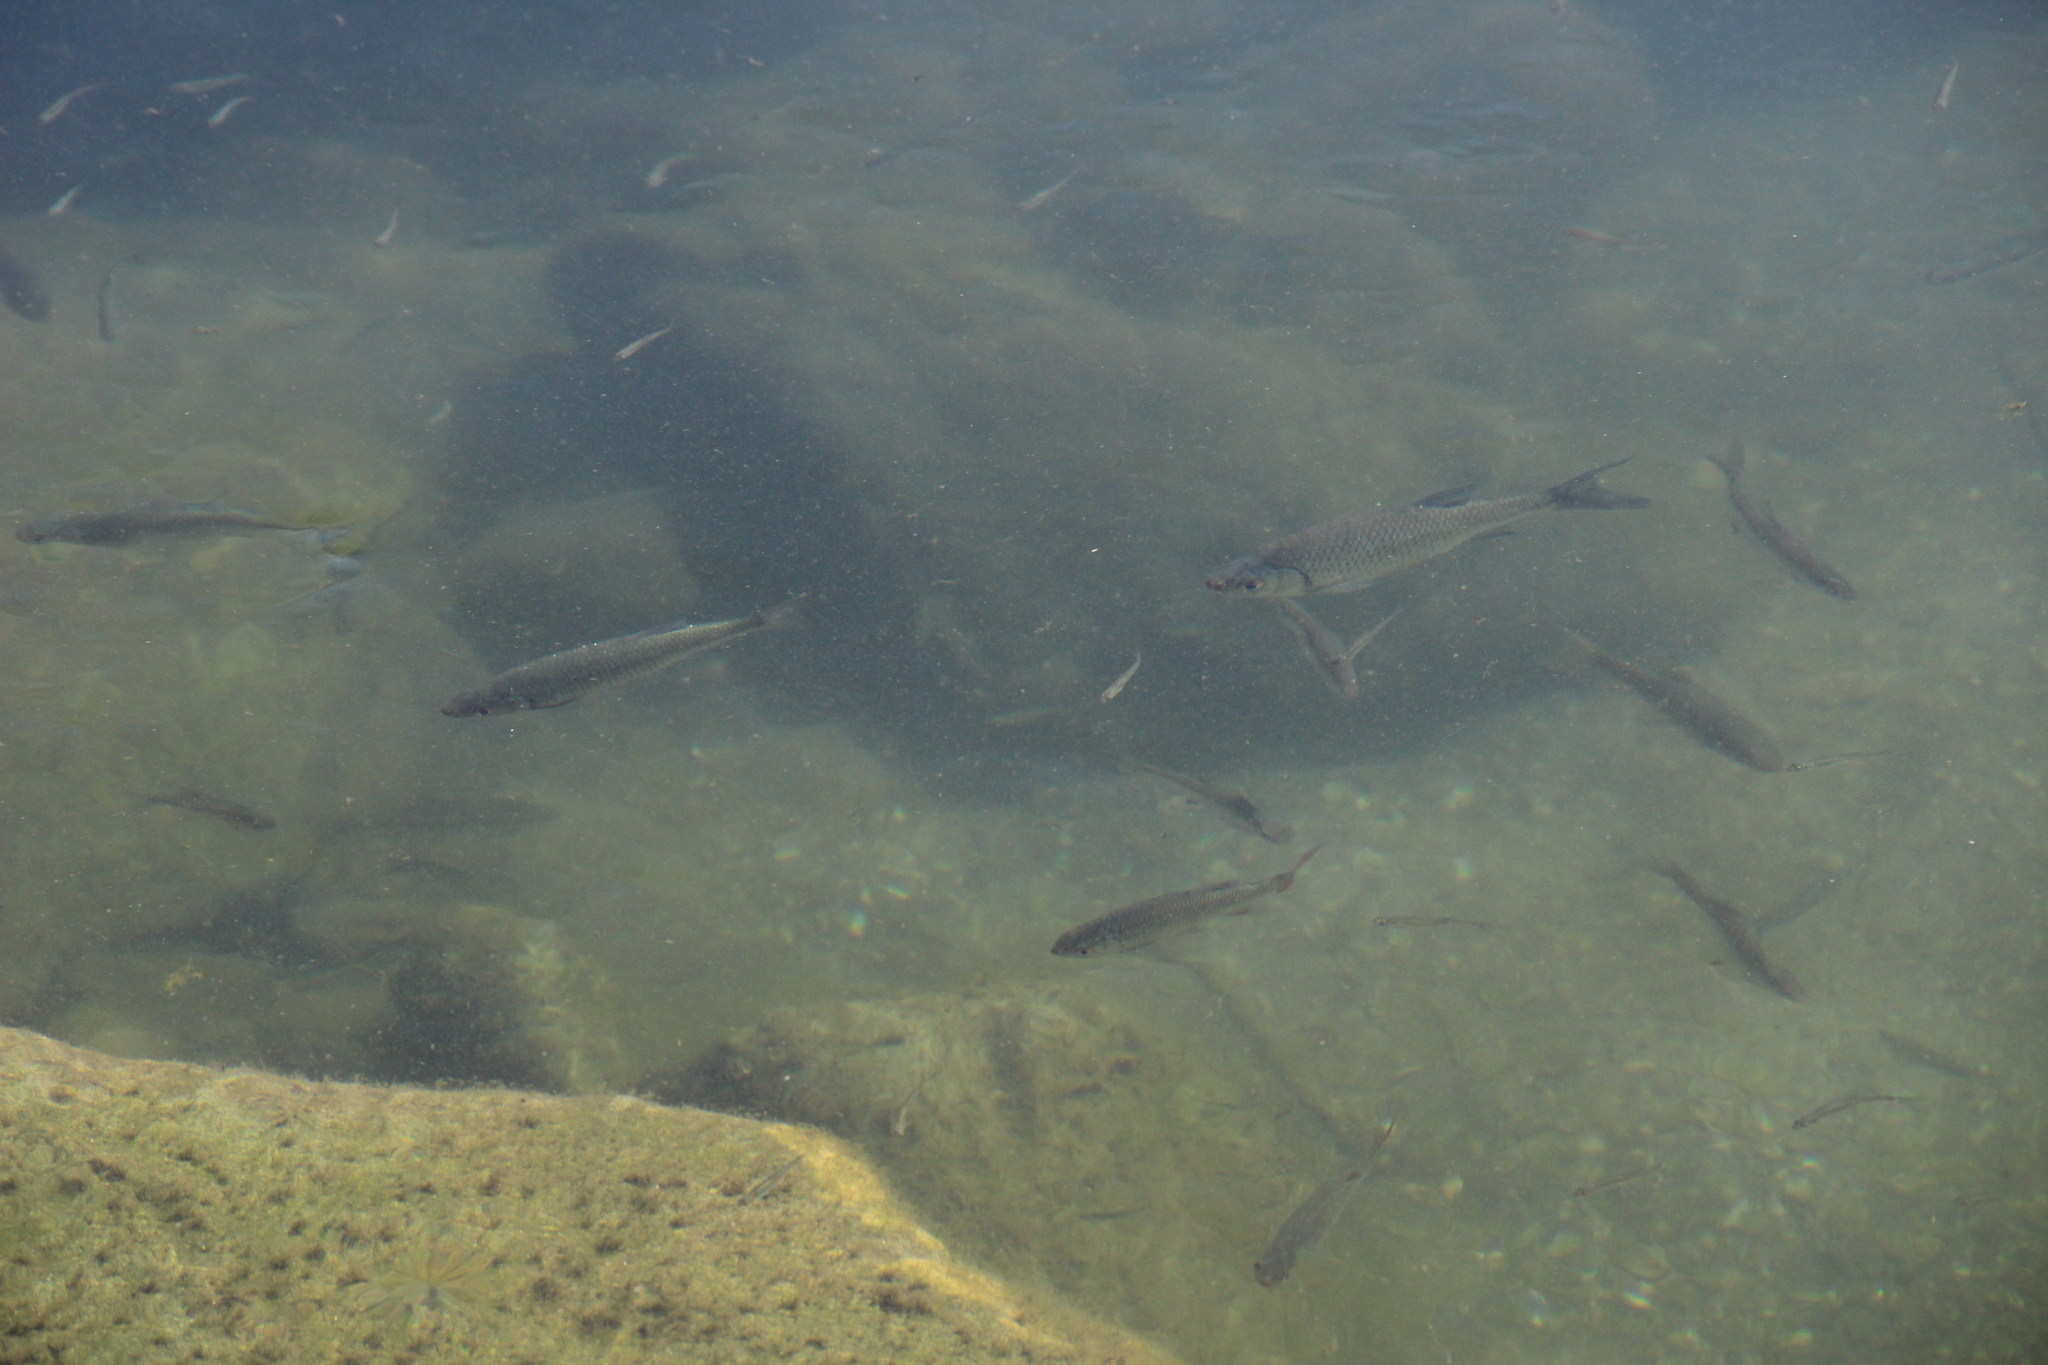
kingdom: Animalia
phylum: Chordata
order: Cypriniformes
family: Cyprinidae
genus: Chondrostoma
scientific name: Chondrostoma soetta
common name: Italian nase
